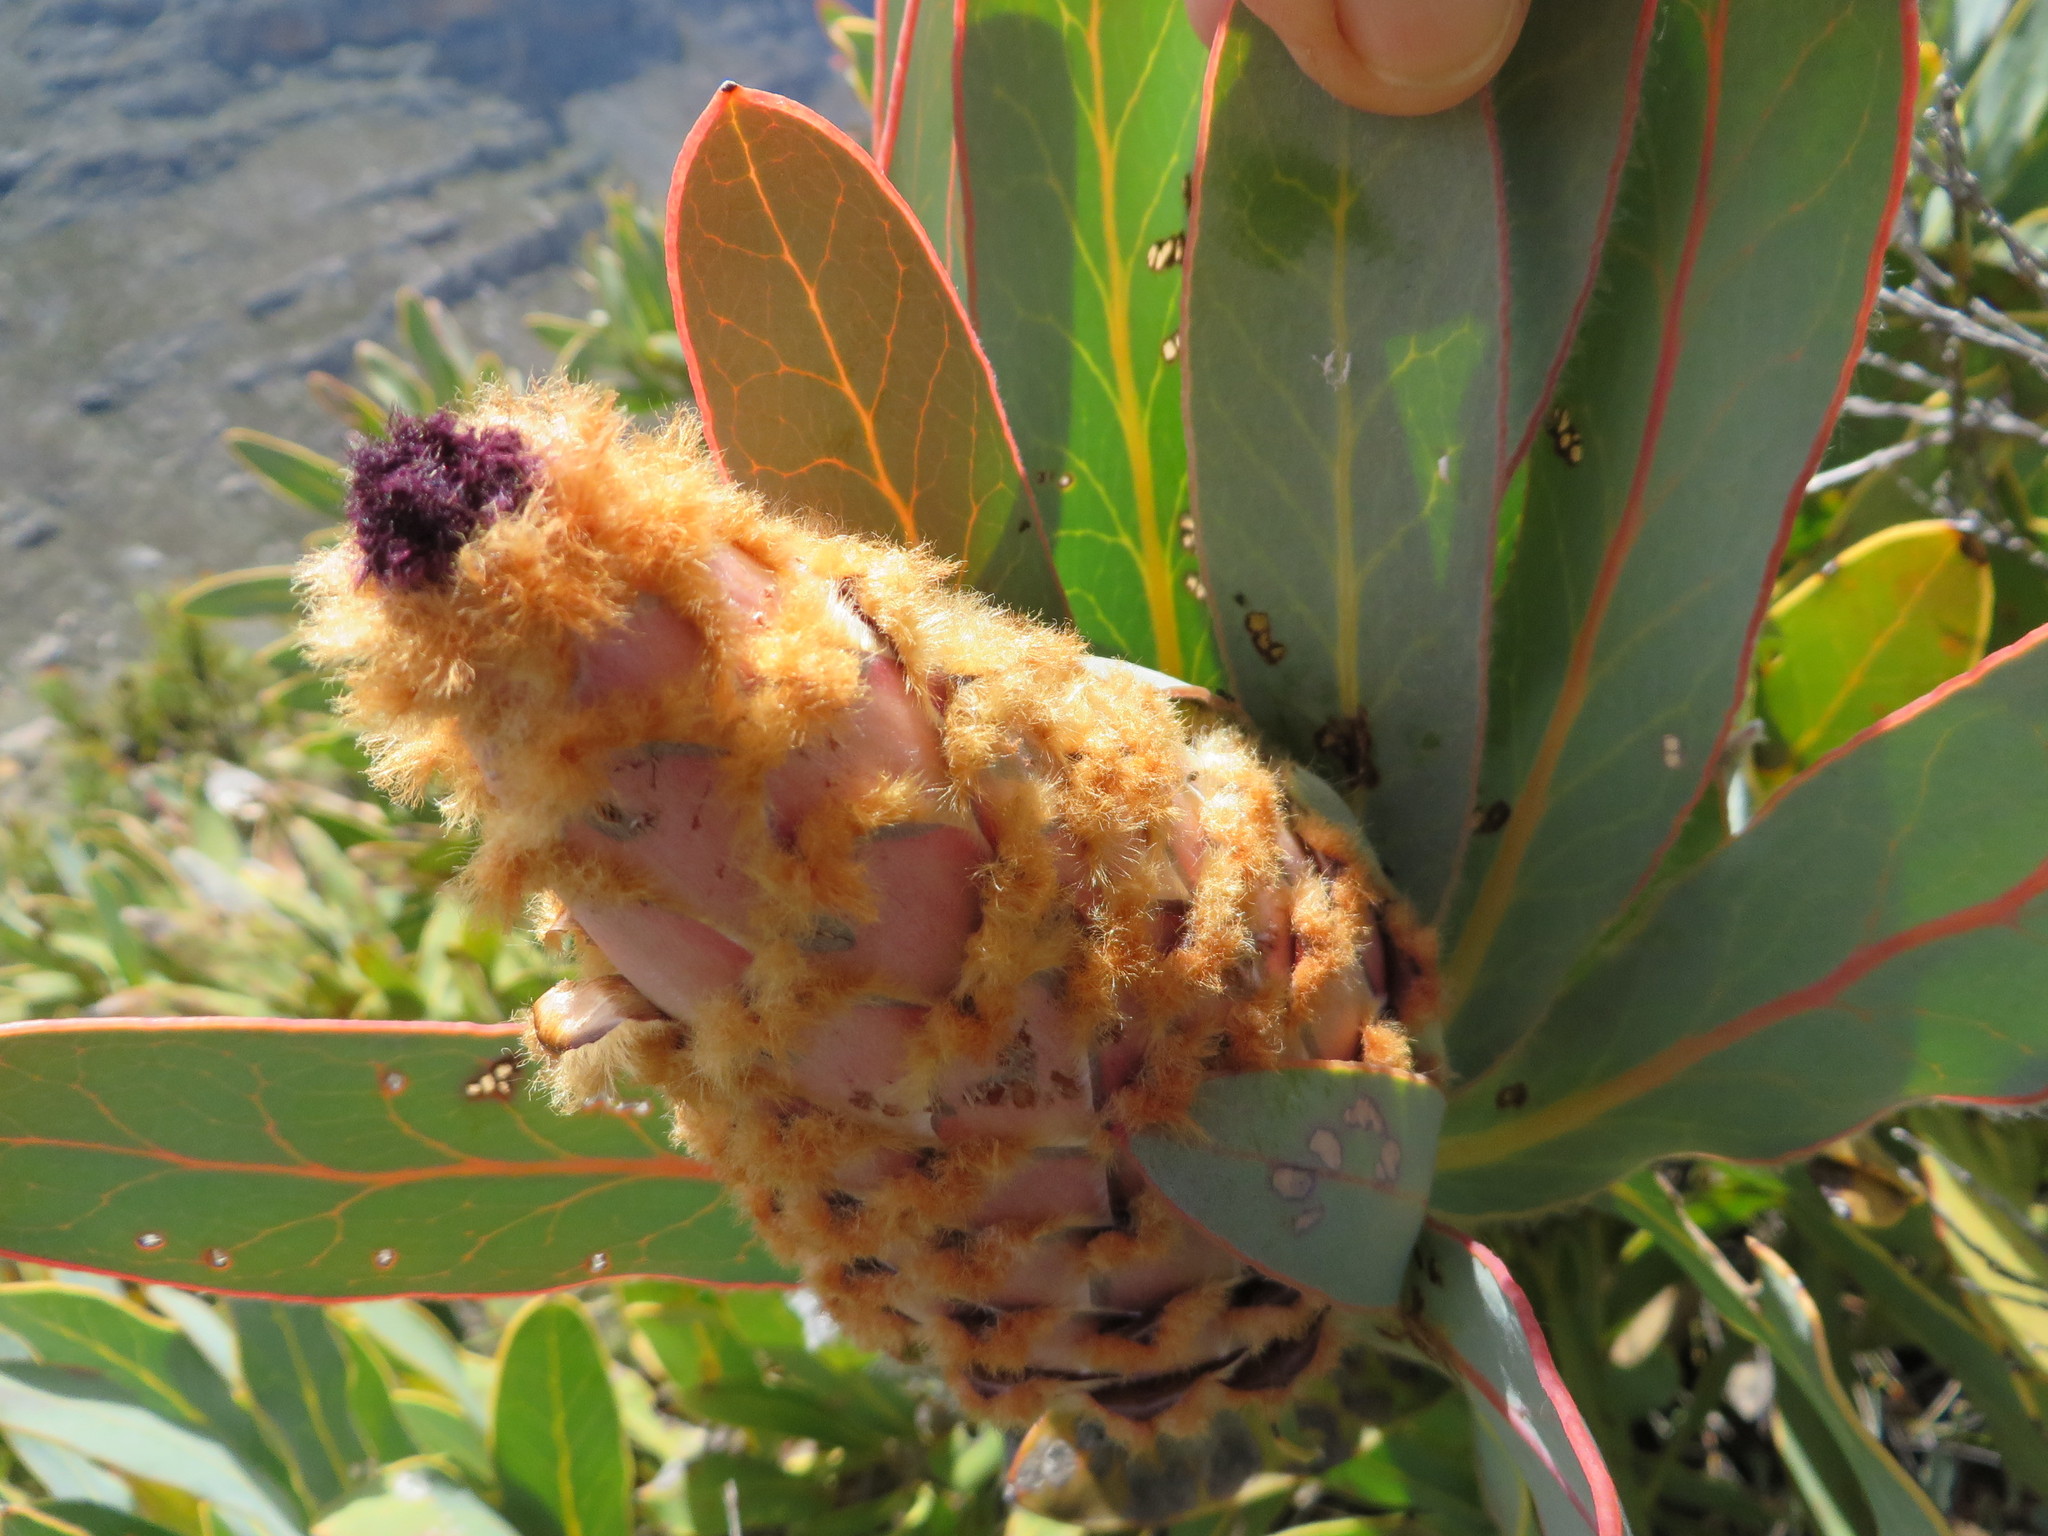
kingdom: Plantae
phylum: Tracheophyta
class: Magnoliopsida
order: Proteales
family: Proteaceae
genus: Protea
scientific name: Protea magnifica
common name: Bearded sugarbush
